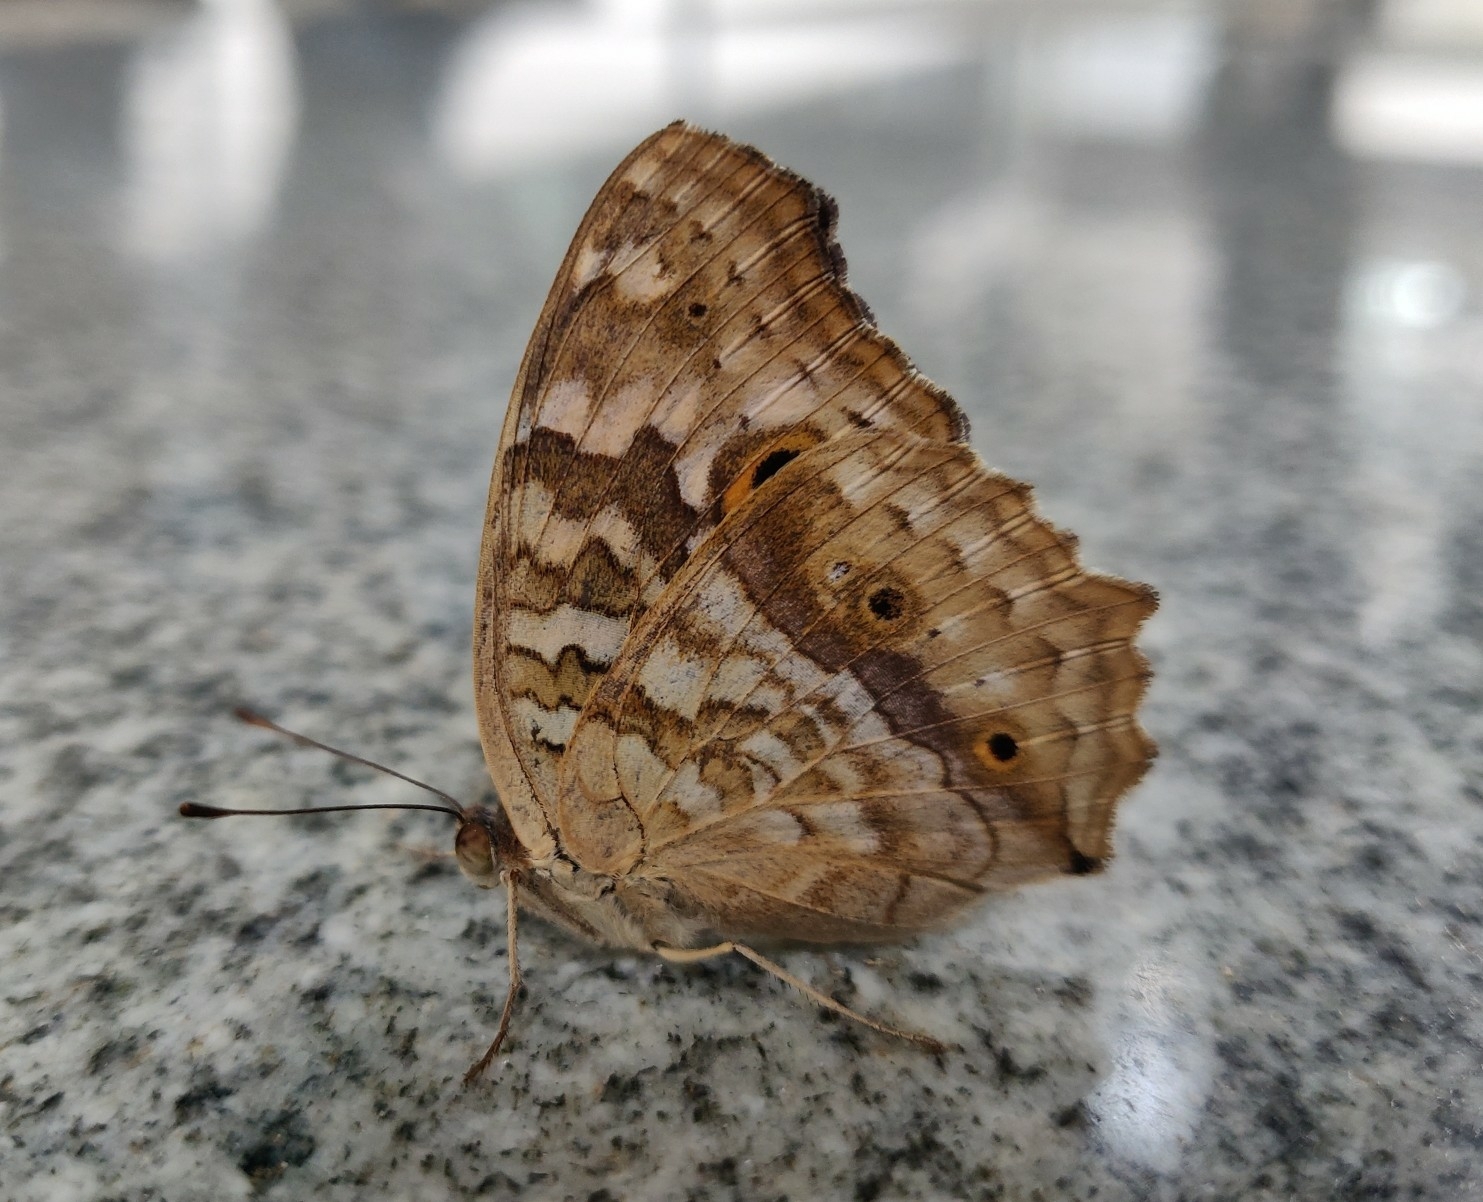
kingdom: Animalia
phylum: Arthropoda
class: Insecta
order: Lepidoptera
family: Nymphalidae
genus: Junonia
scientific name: Junonia lemonias
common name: Lemon pansy
